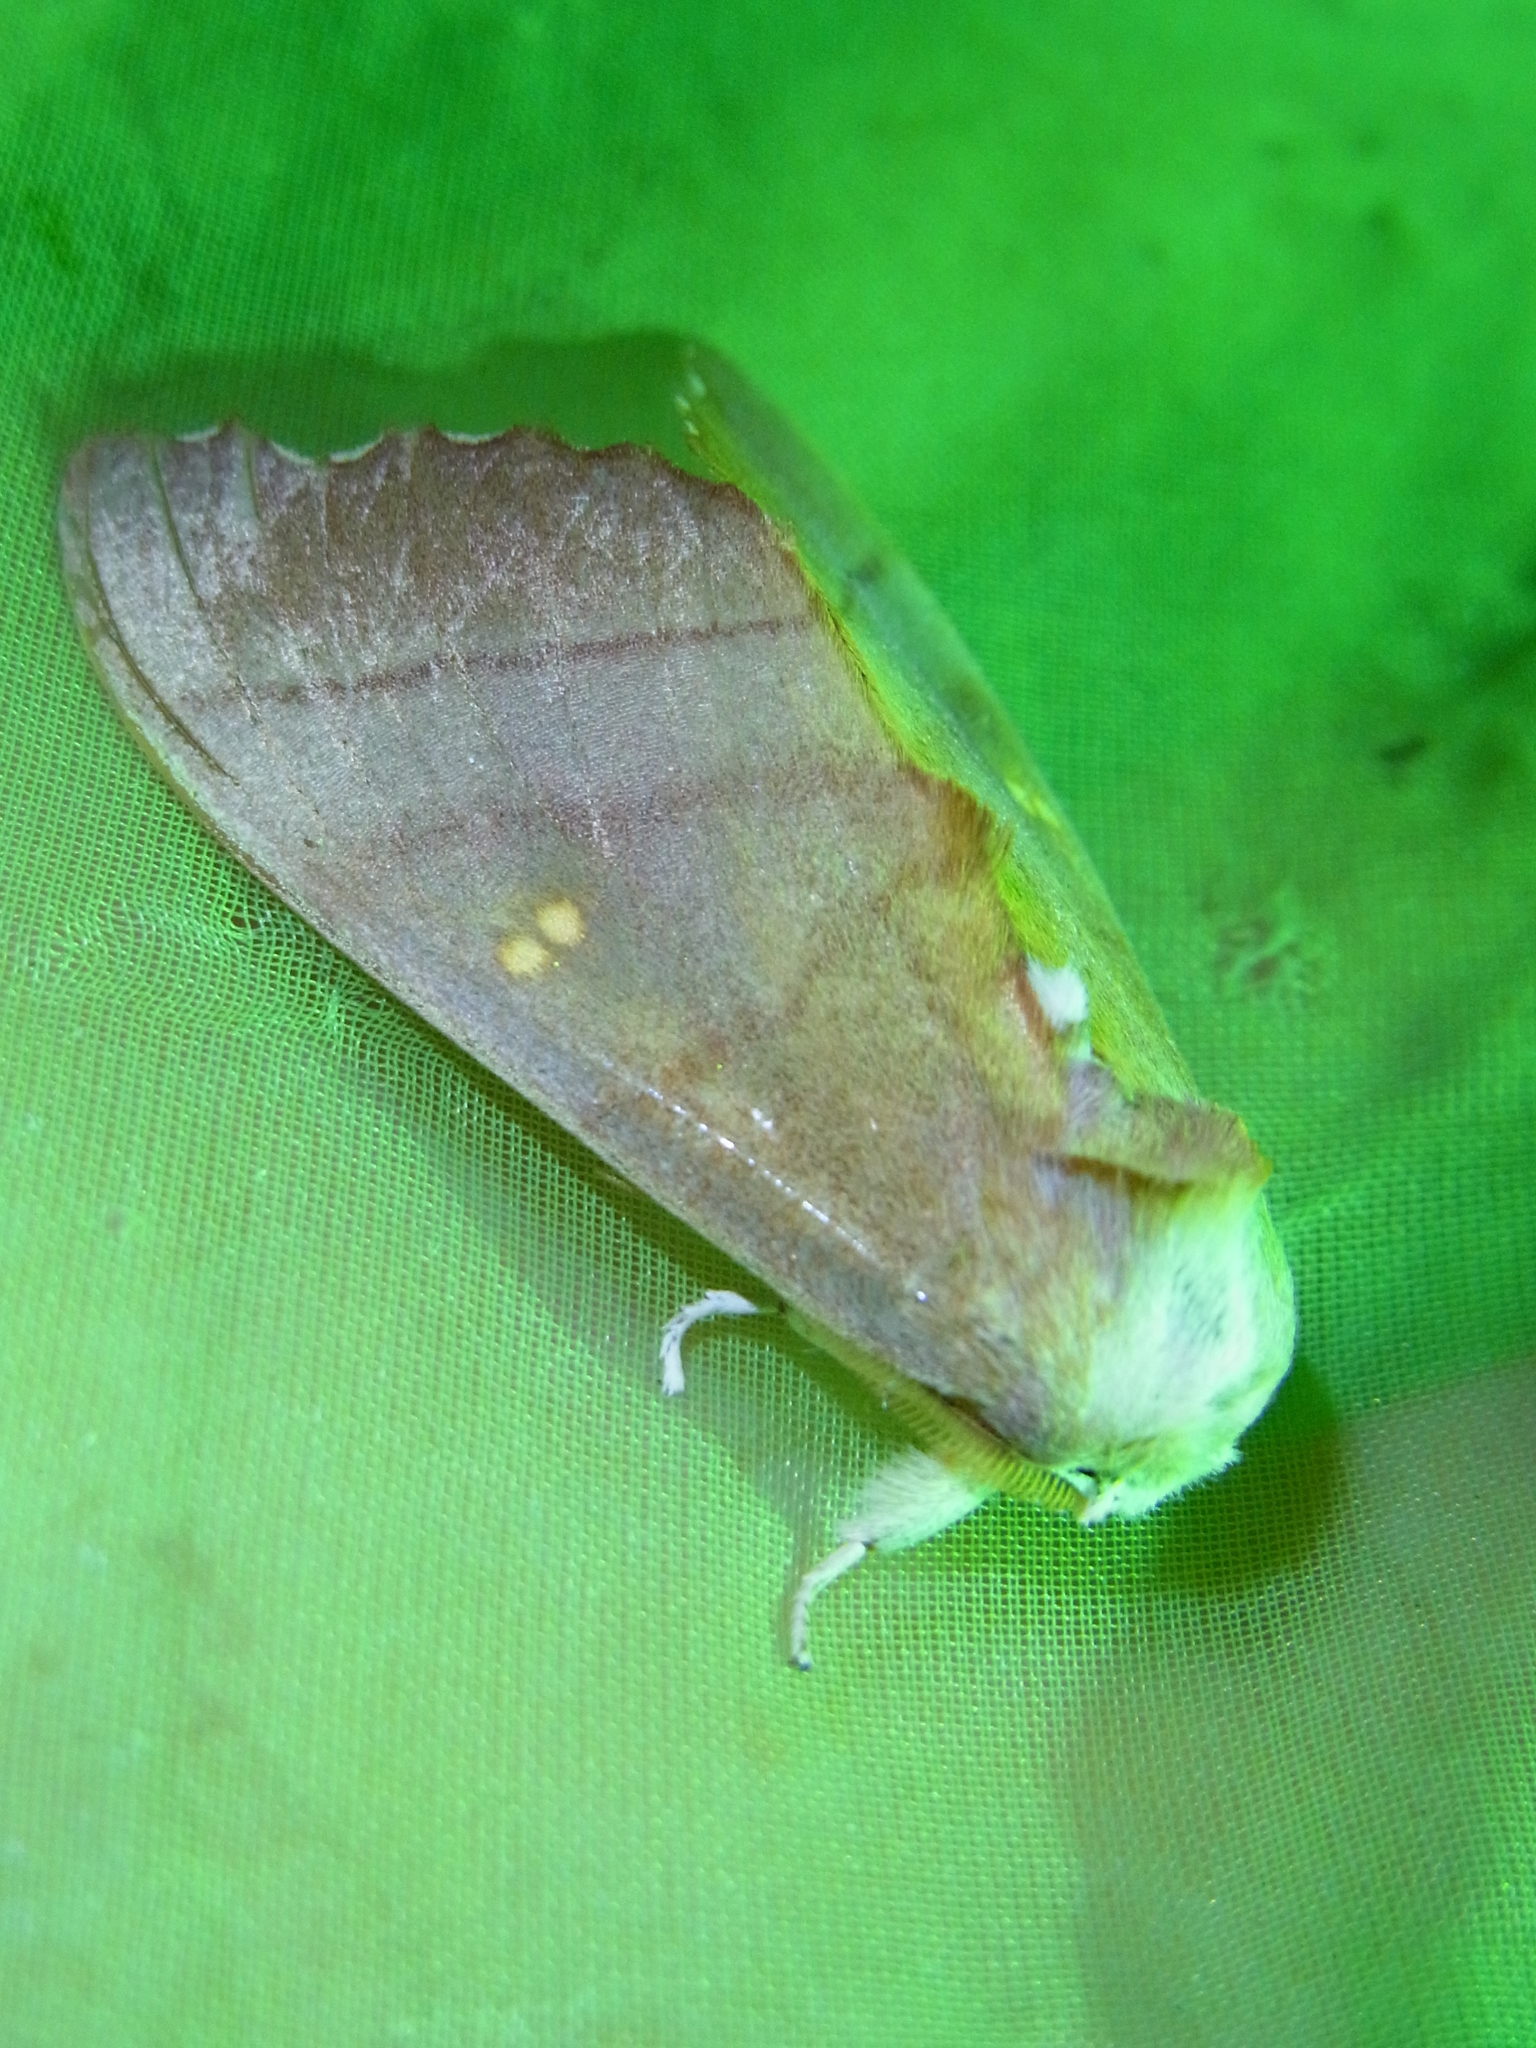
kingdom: Animalia
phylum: Arthropoda
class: Insecta
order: Lepidoptera
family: Notodontidae
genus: Euhampsonia
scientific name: Euhampsonia cristata
